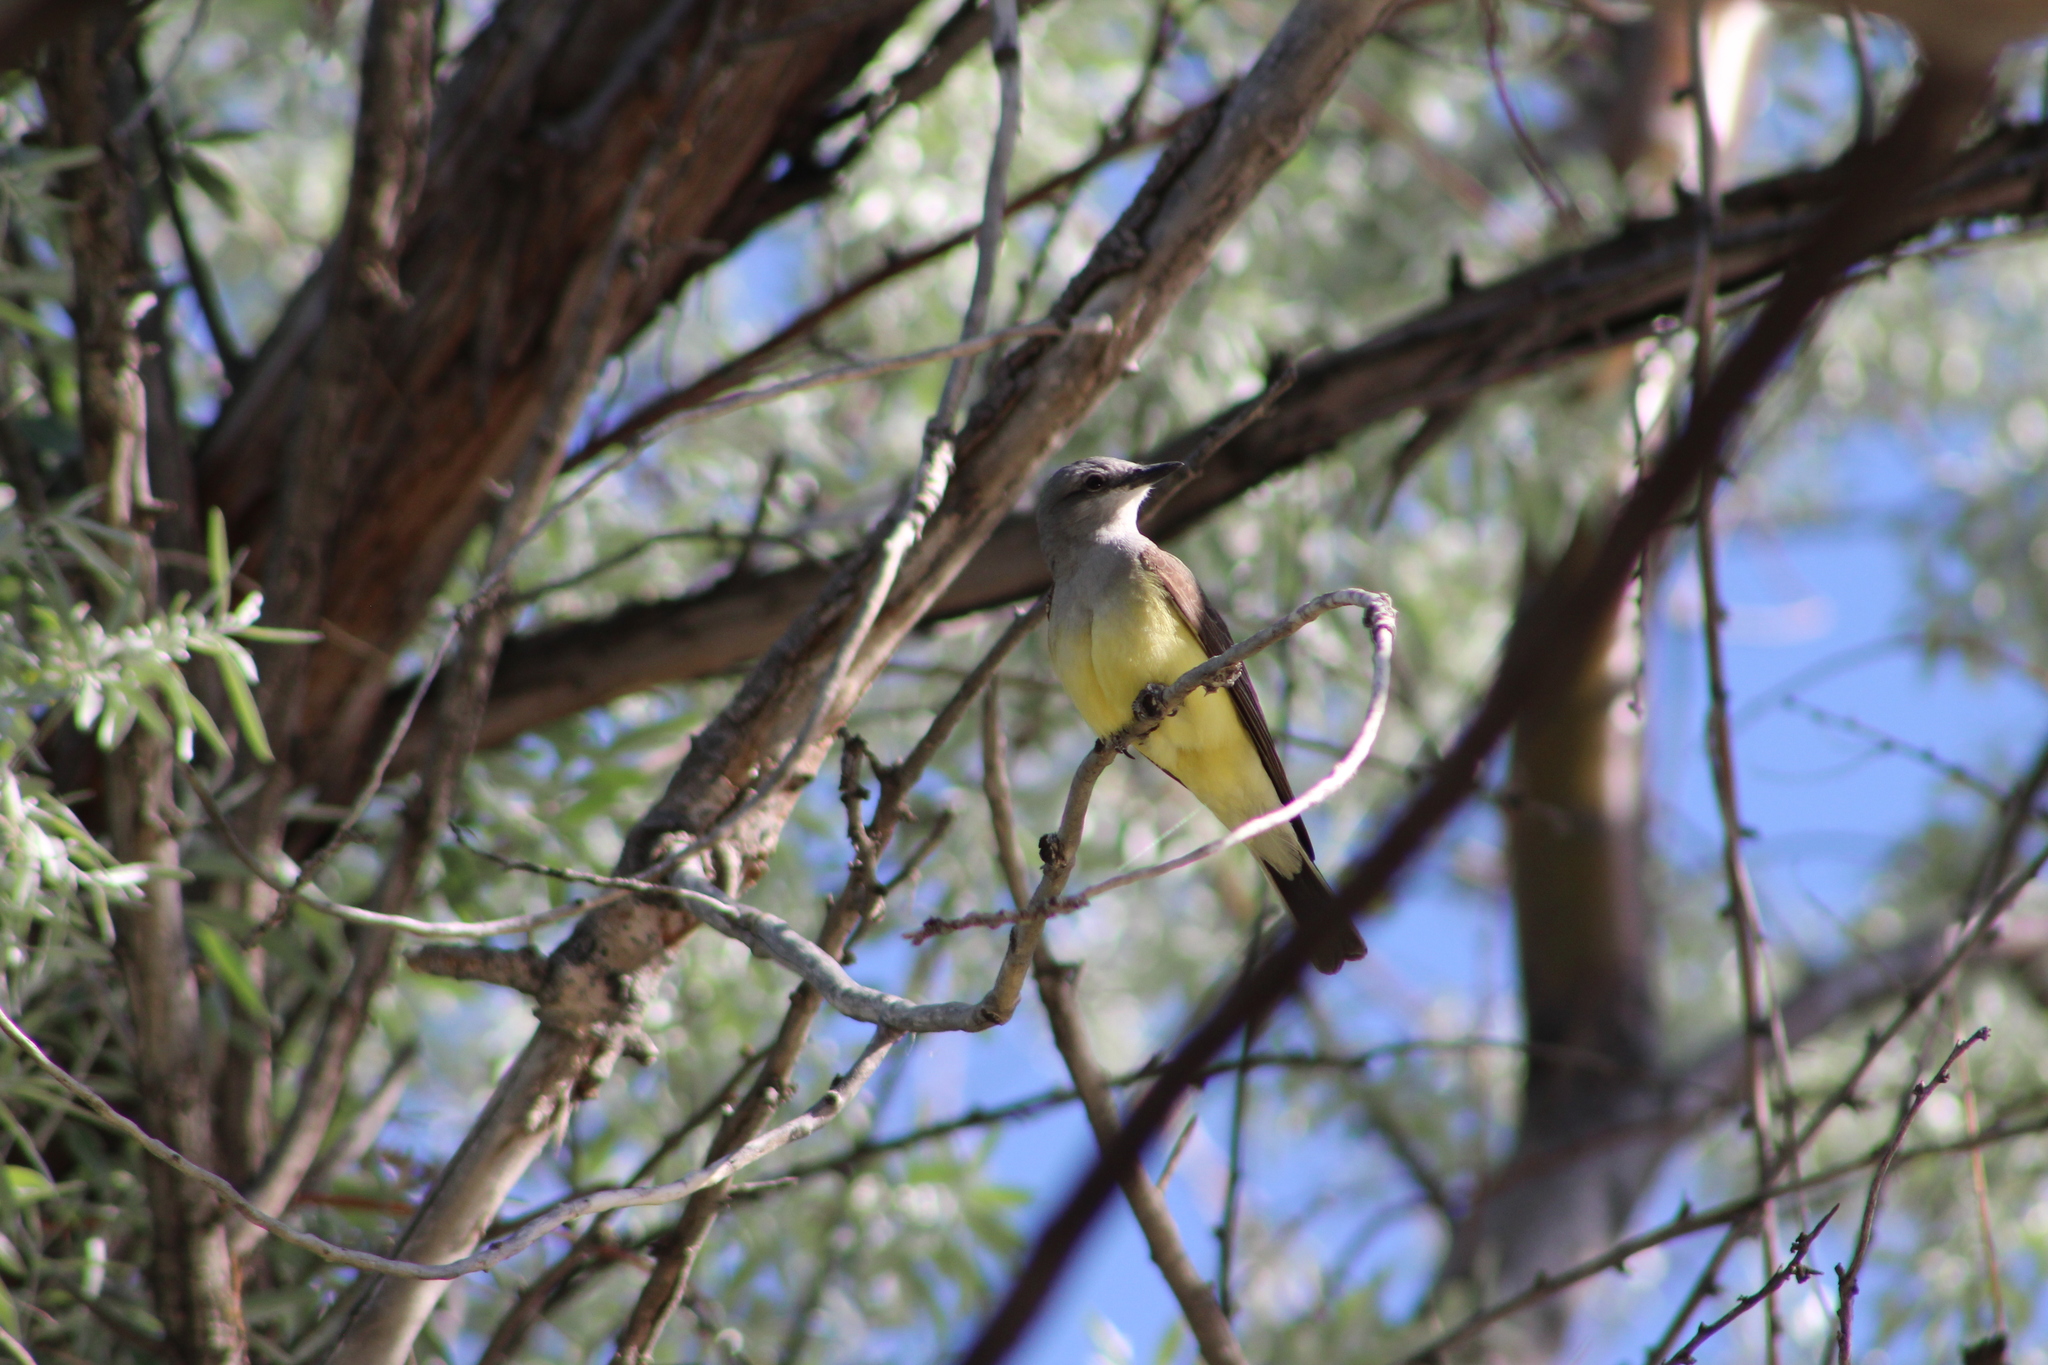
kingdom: Animalia
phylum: Chordata
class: Aves
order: Passeriformes
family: Tyrannidae
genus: Tyrannus
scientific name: Tyrannus verticalis
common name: Western kingbird
